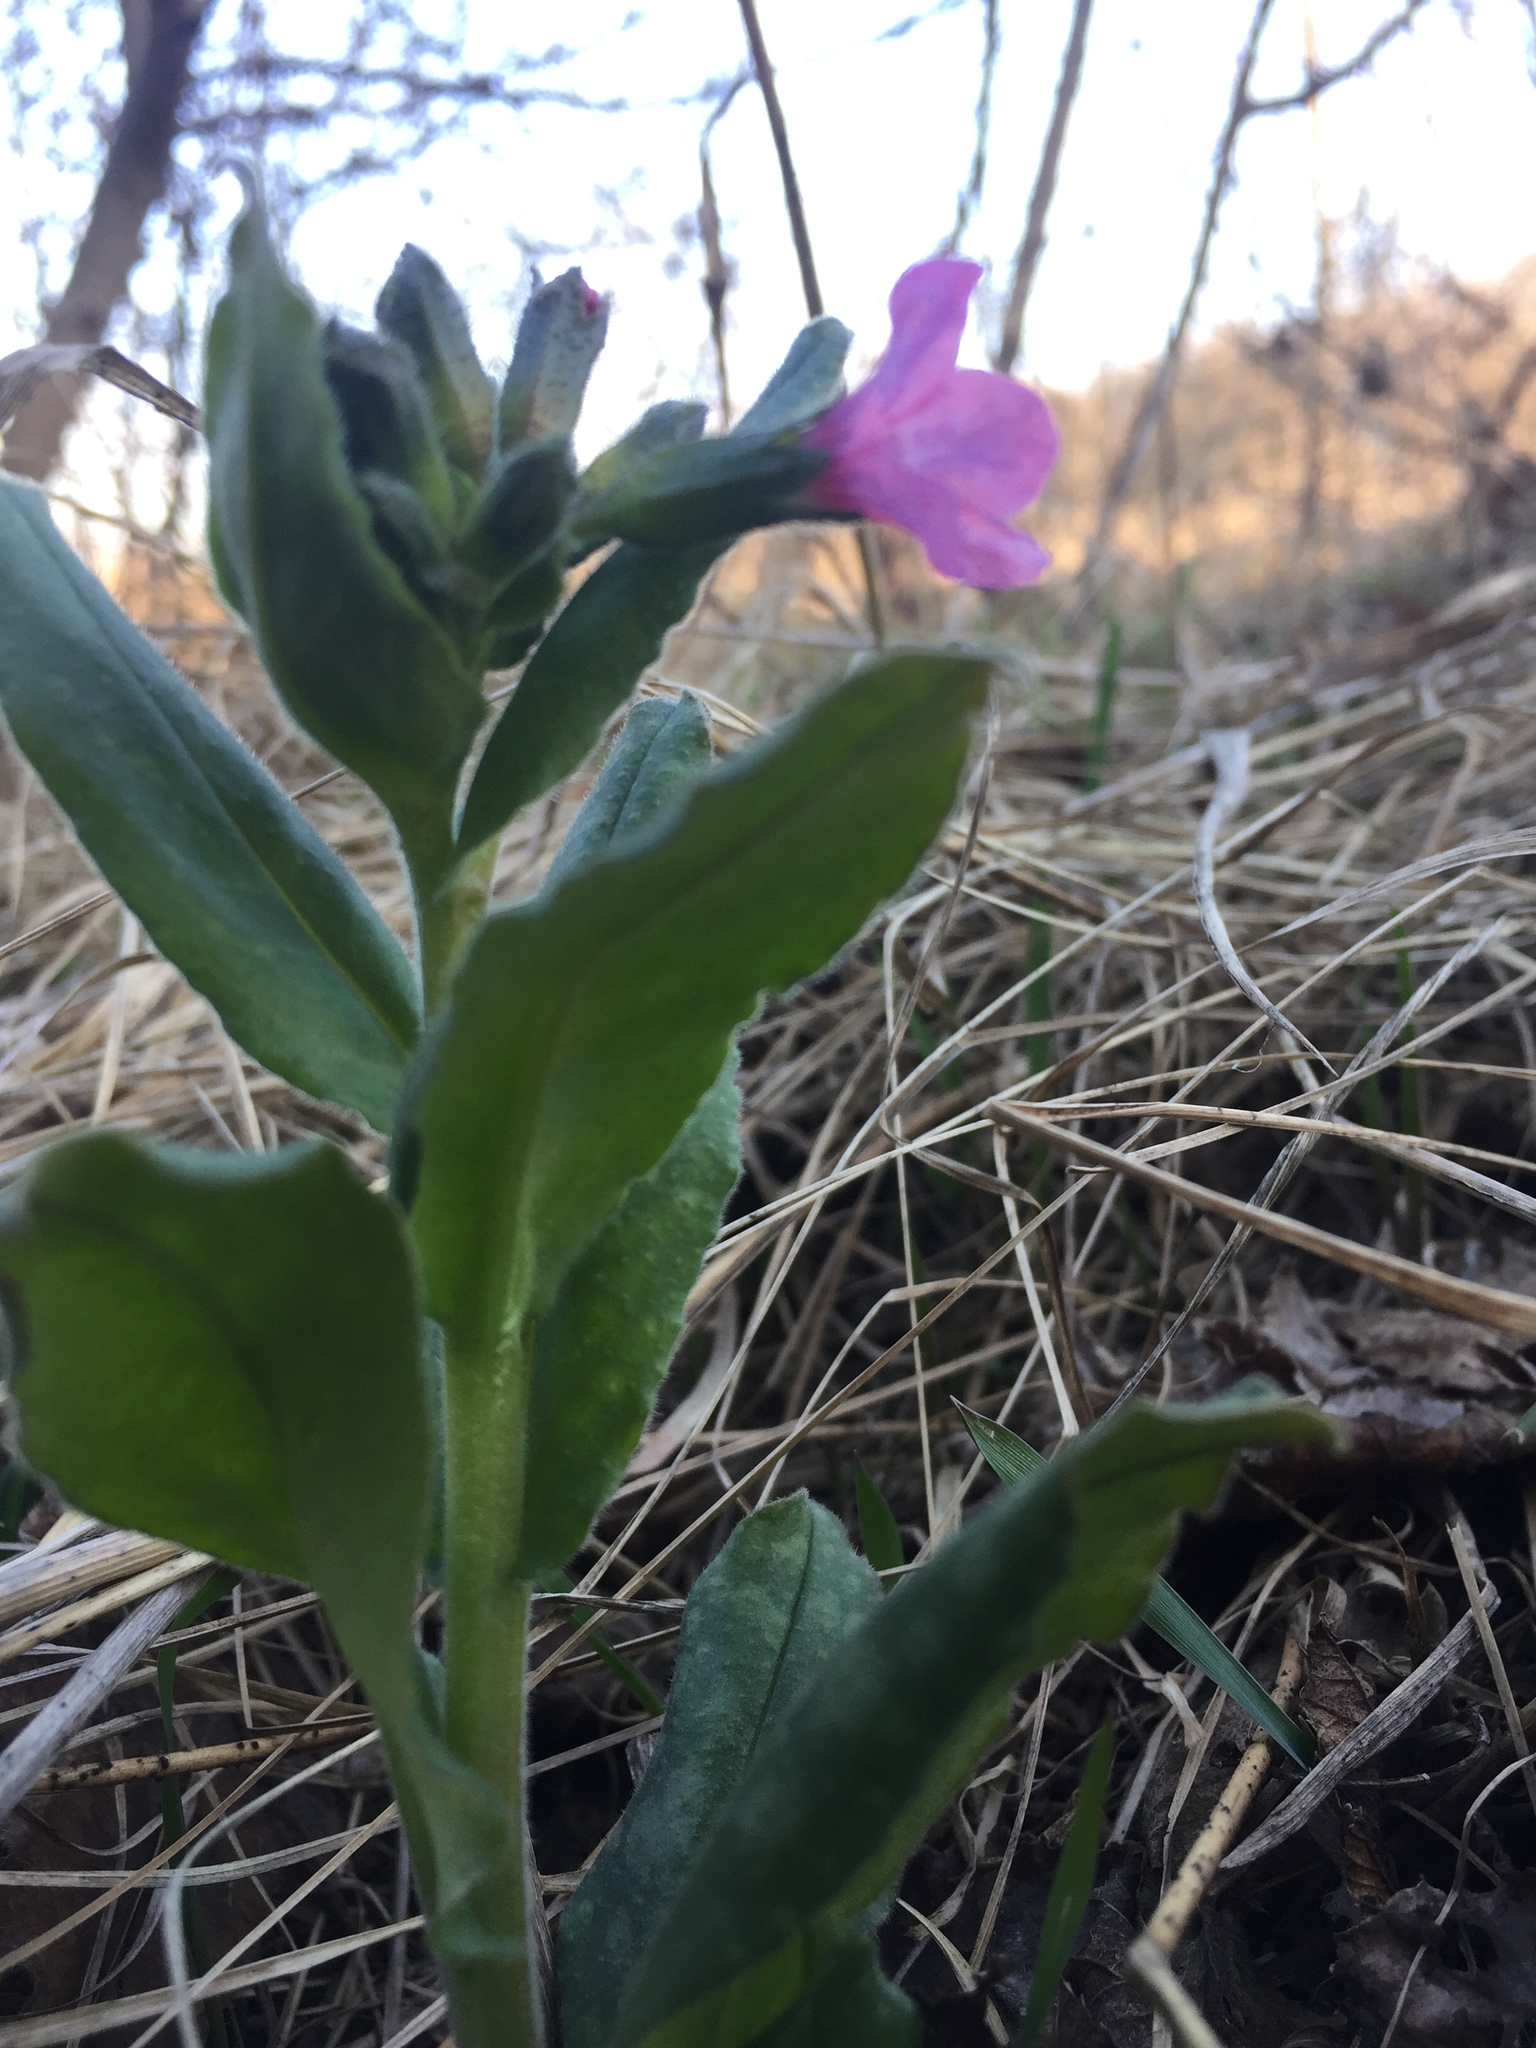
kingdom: Plantae
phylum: Tracheophyta
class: Magnoliopsida
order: Boraginales
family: Boraginaceae
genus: Pulmonaria
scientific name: Pulmonaria obscura
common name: Suffolk lungwort
